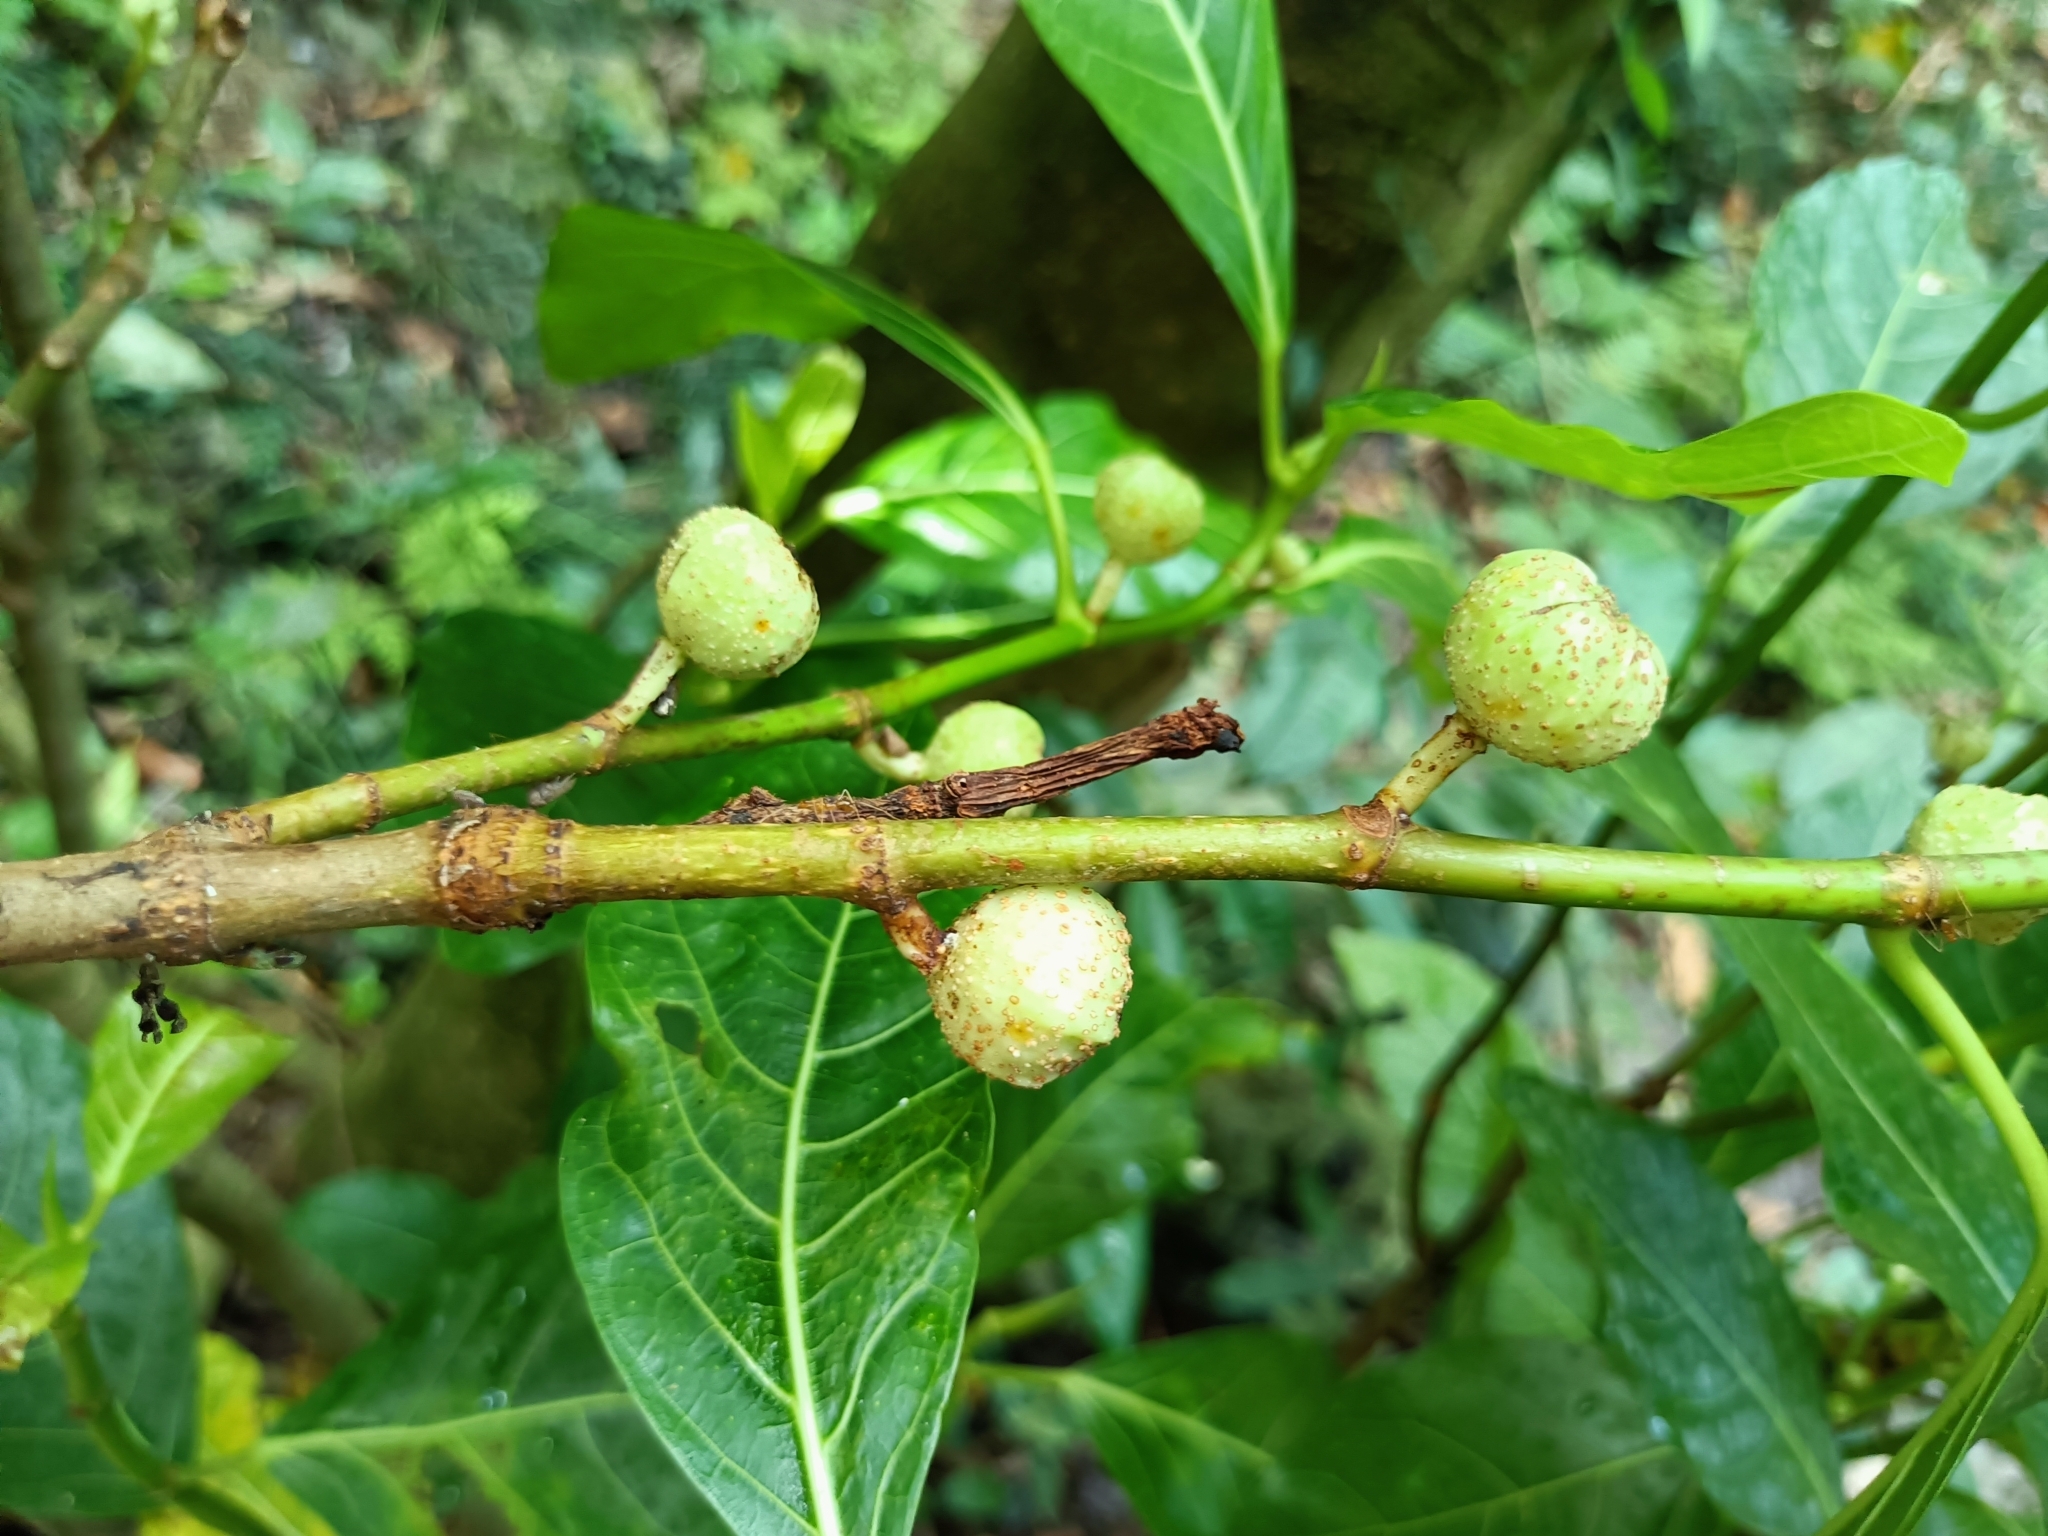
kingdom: Plantae
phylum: Tracheophyta
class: Magnoliopsida
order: Rosales
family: Moraceae
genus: Ficus
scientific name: Ficus septica
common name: Septic fig
